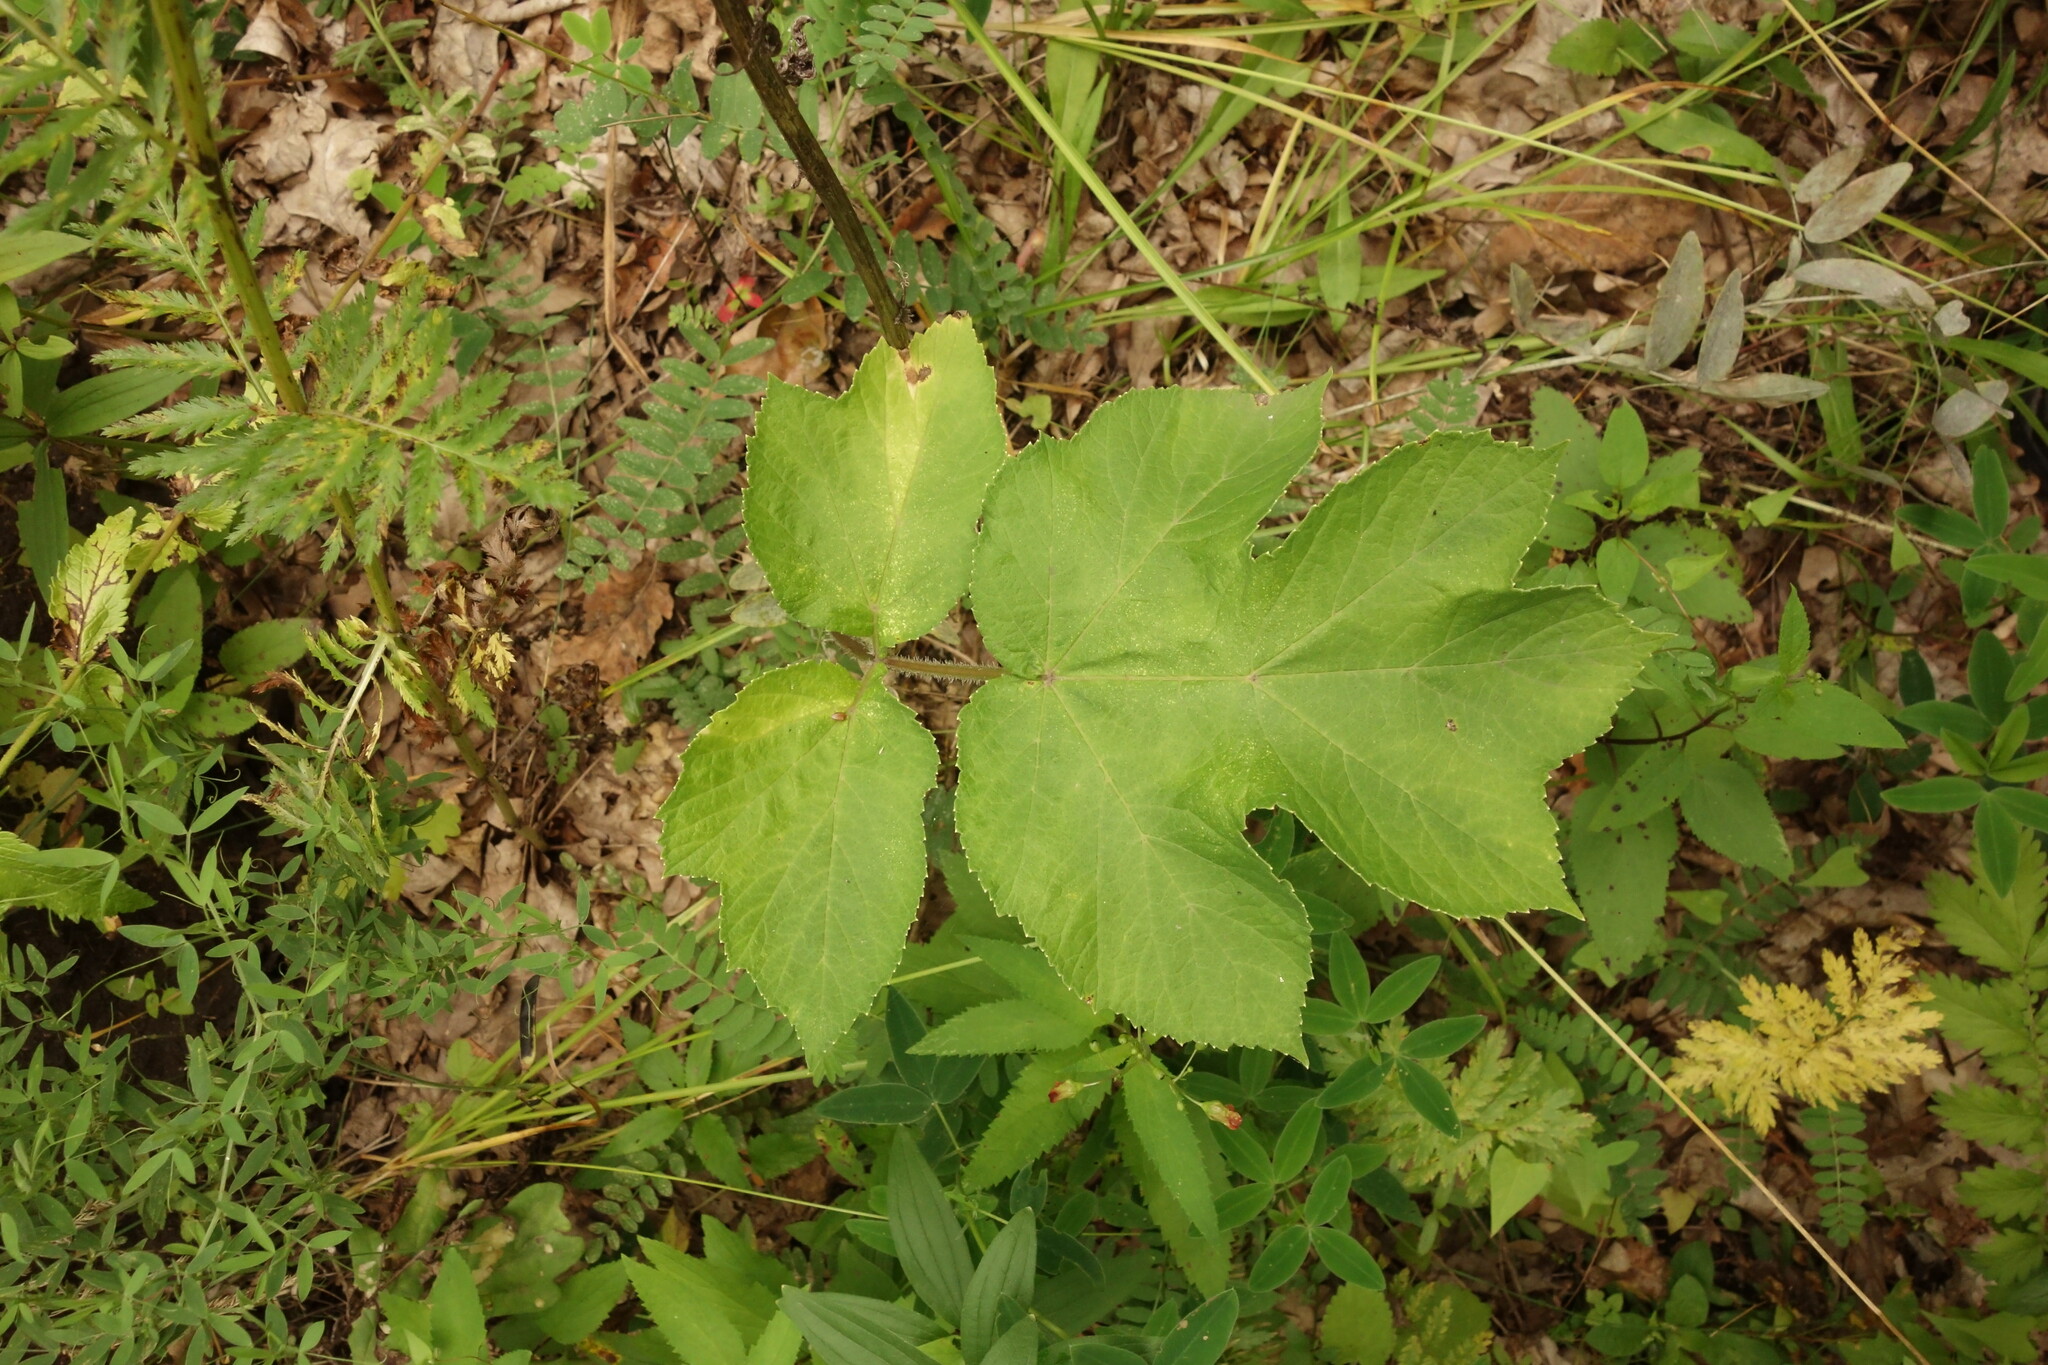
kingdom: Plantae
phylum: Tracheophyta
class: Magnoliopsida
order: Apiales
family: Apiaceae
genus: Heracleum
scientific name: Heracleum sphondylium
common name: Hogweed
